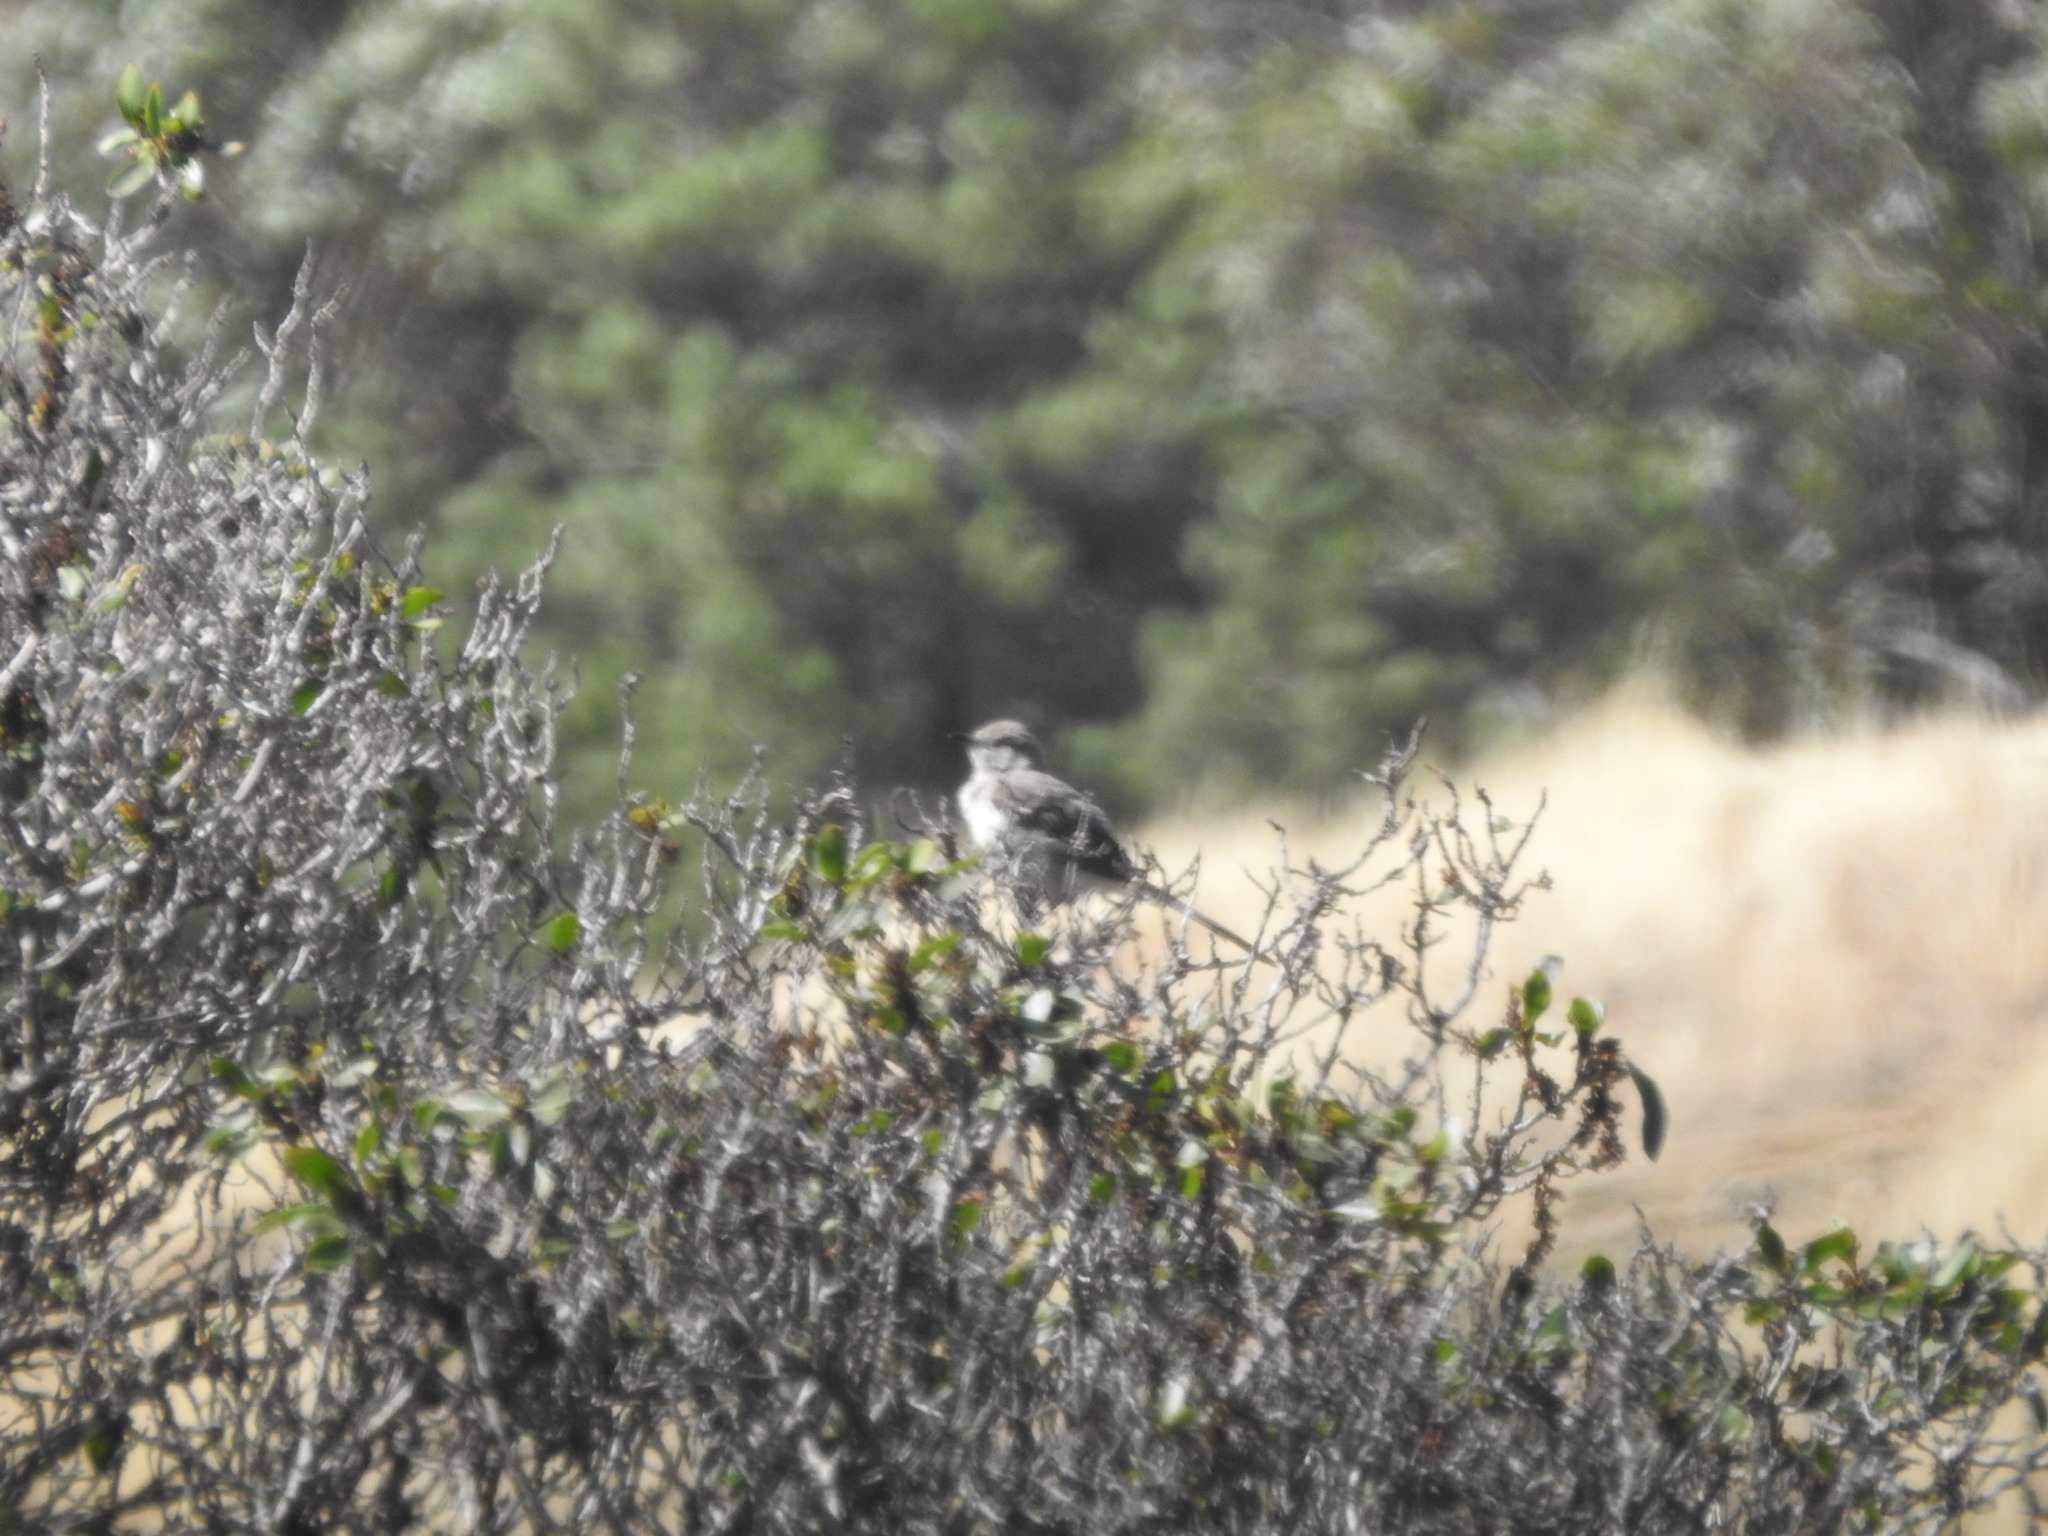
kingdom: Animalia
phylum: Chordata
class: Aves
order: Passeriformes
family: Mimidae
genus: Mimus
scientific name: Mimus polyglottos
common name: Northern mockingbird
